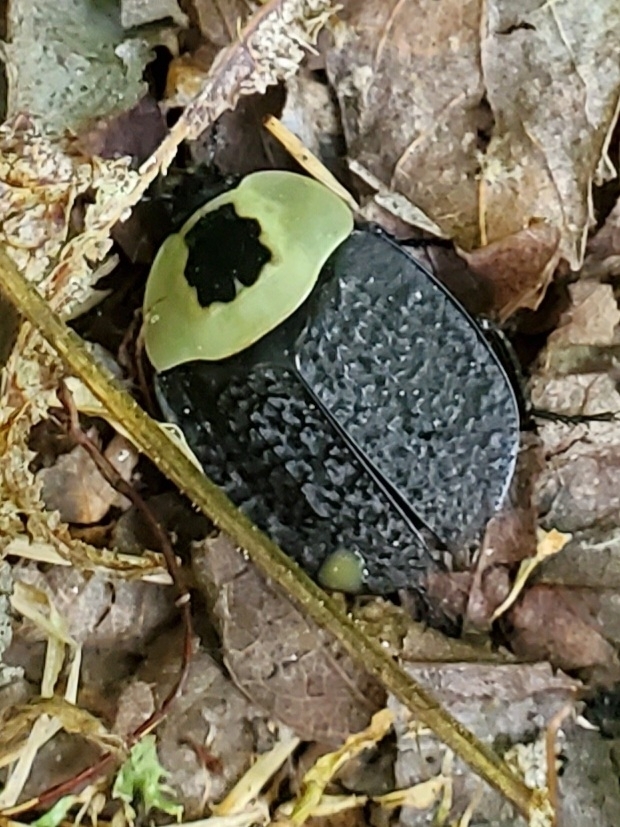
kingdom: Animalia
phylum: Arthropoda
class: Insecta
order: Coleoptera
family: Staphylinidae
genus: Necrophila
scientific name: Necrophila americana
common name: American carrion beetle
